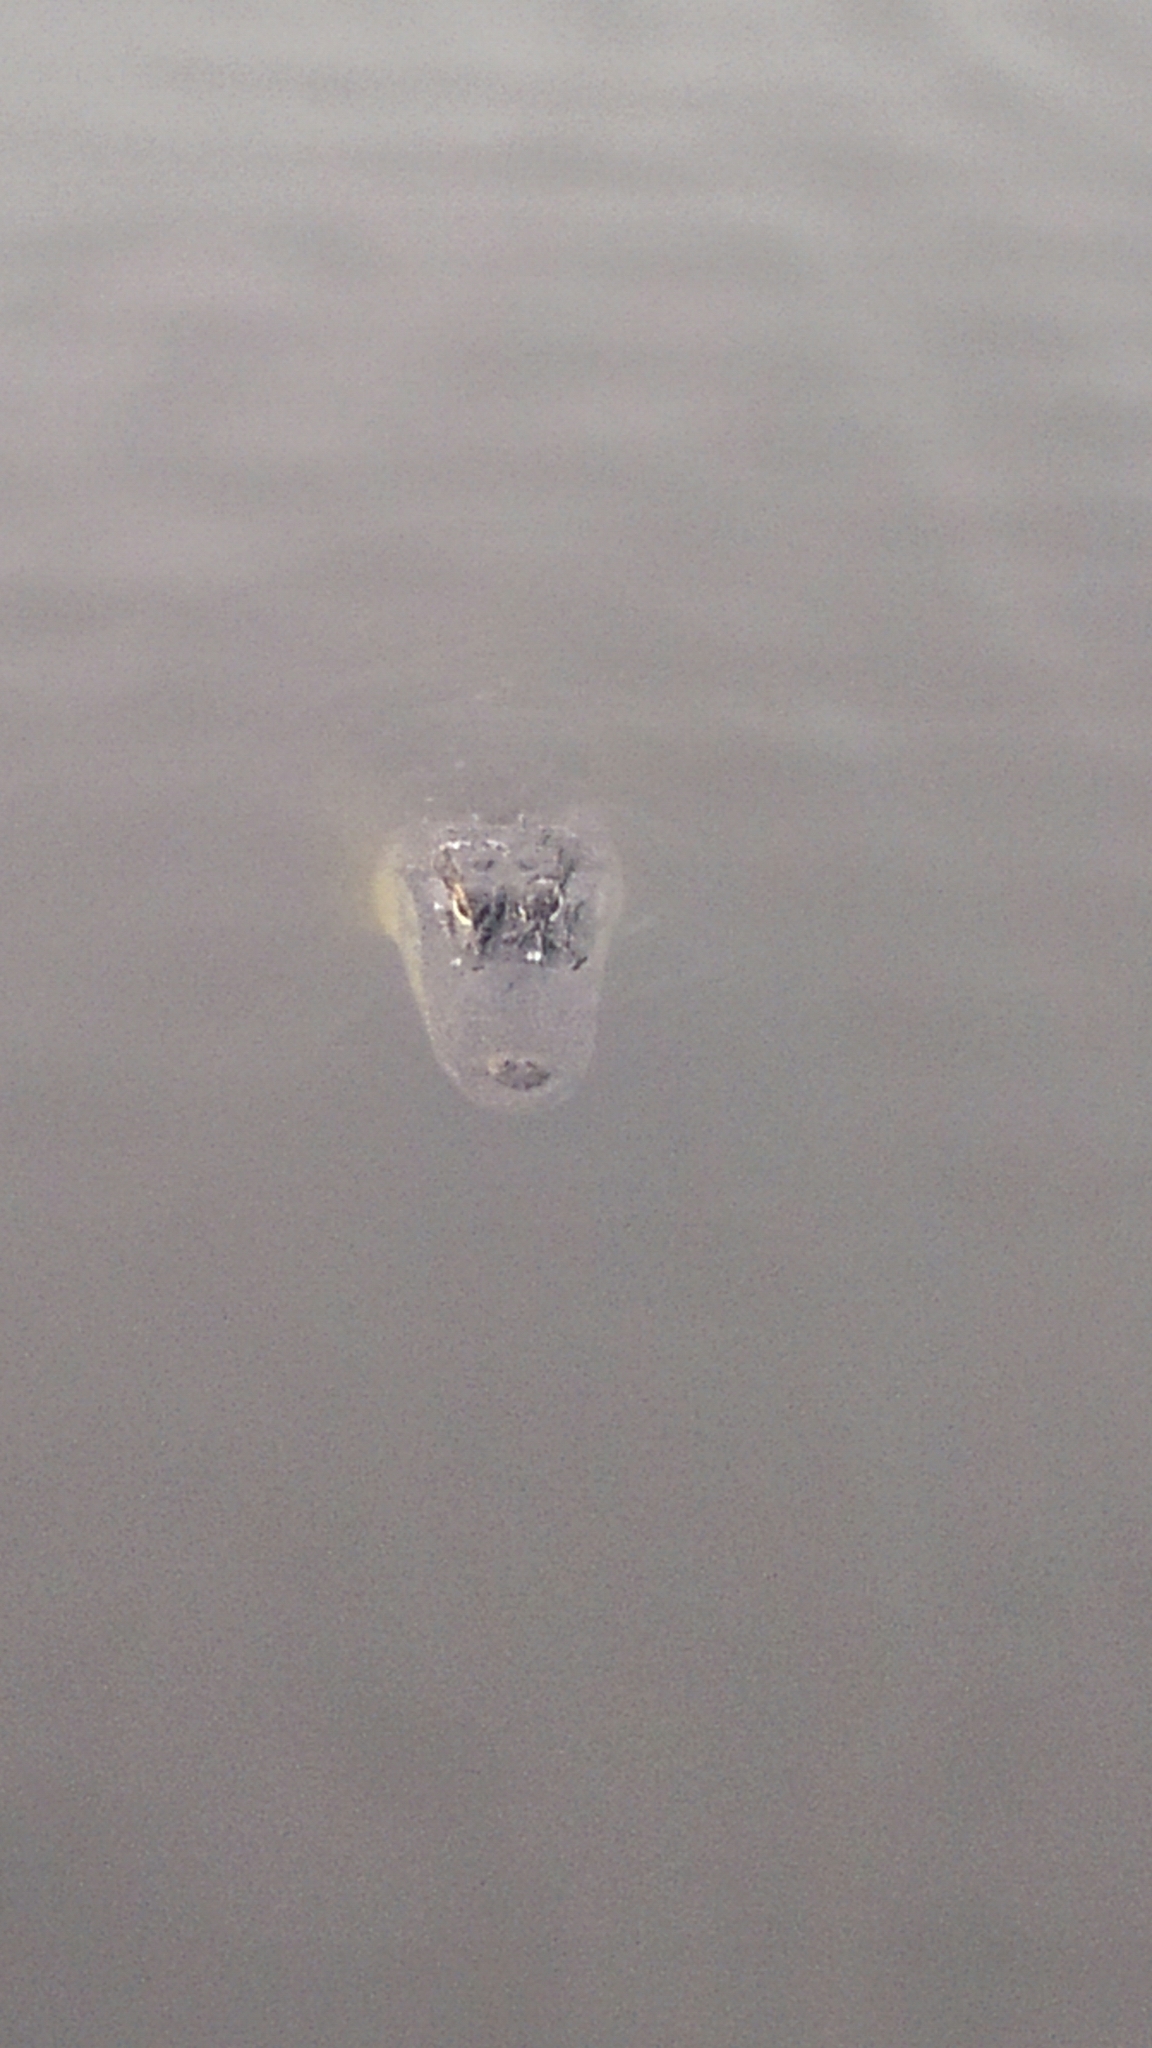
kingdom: Animalia
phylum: Chordata
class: Crocodylia
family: Alligatoridae
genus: Alligator
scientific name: Alligator mississippiensis
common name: American alligator
